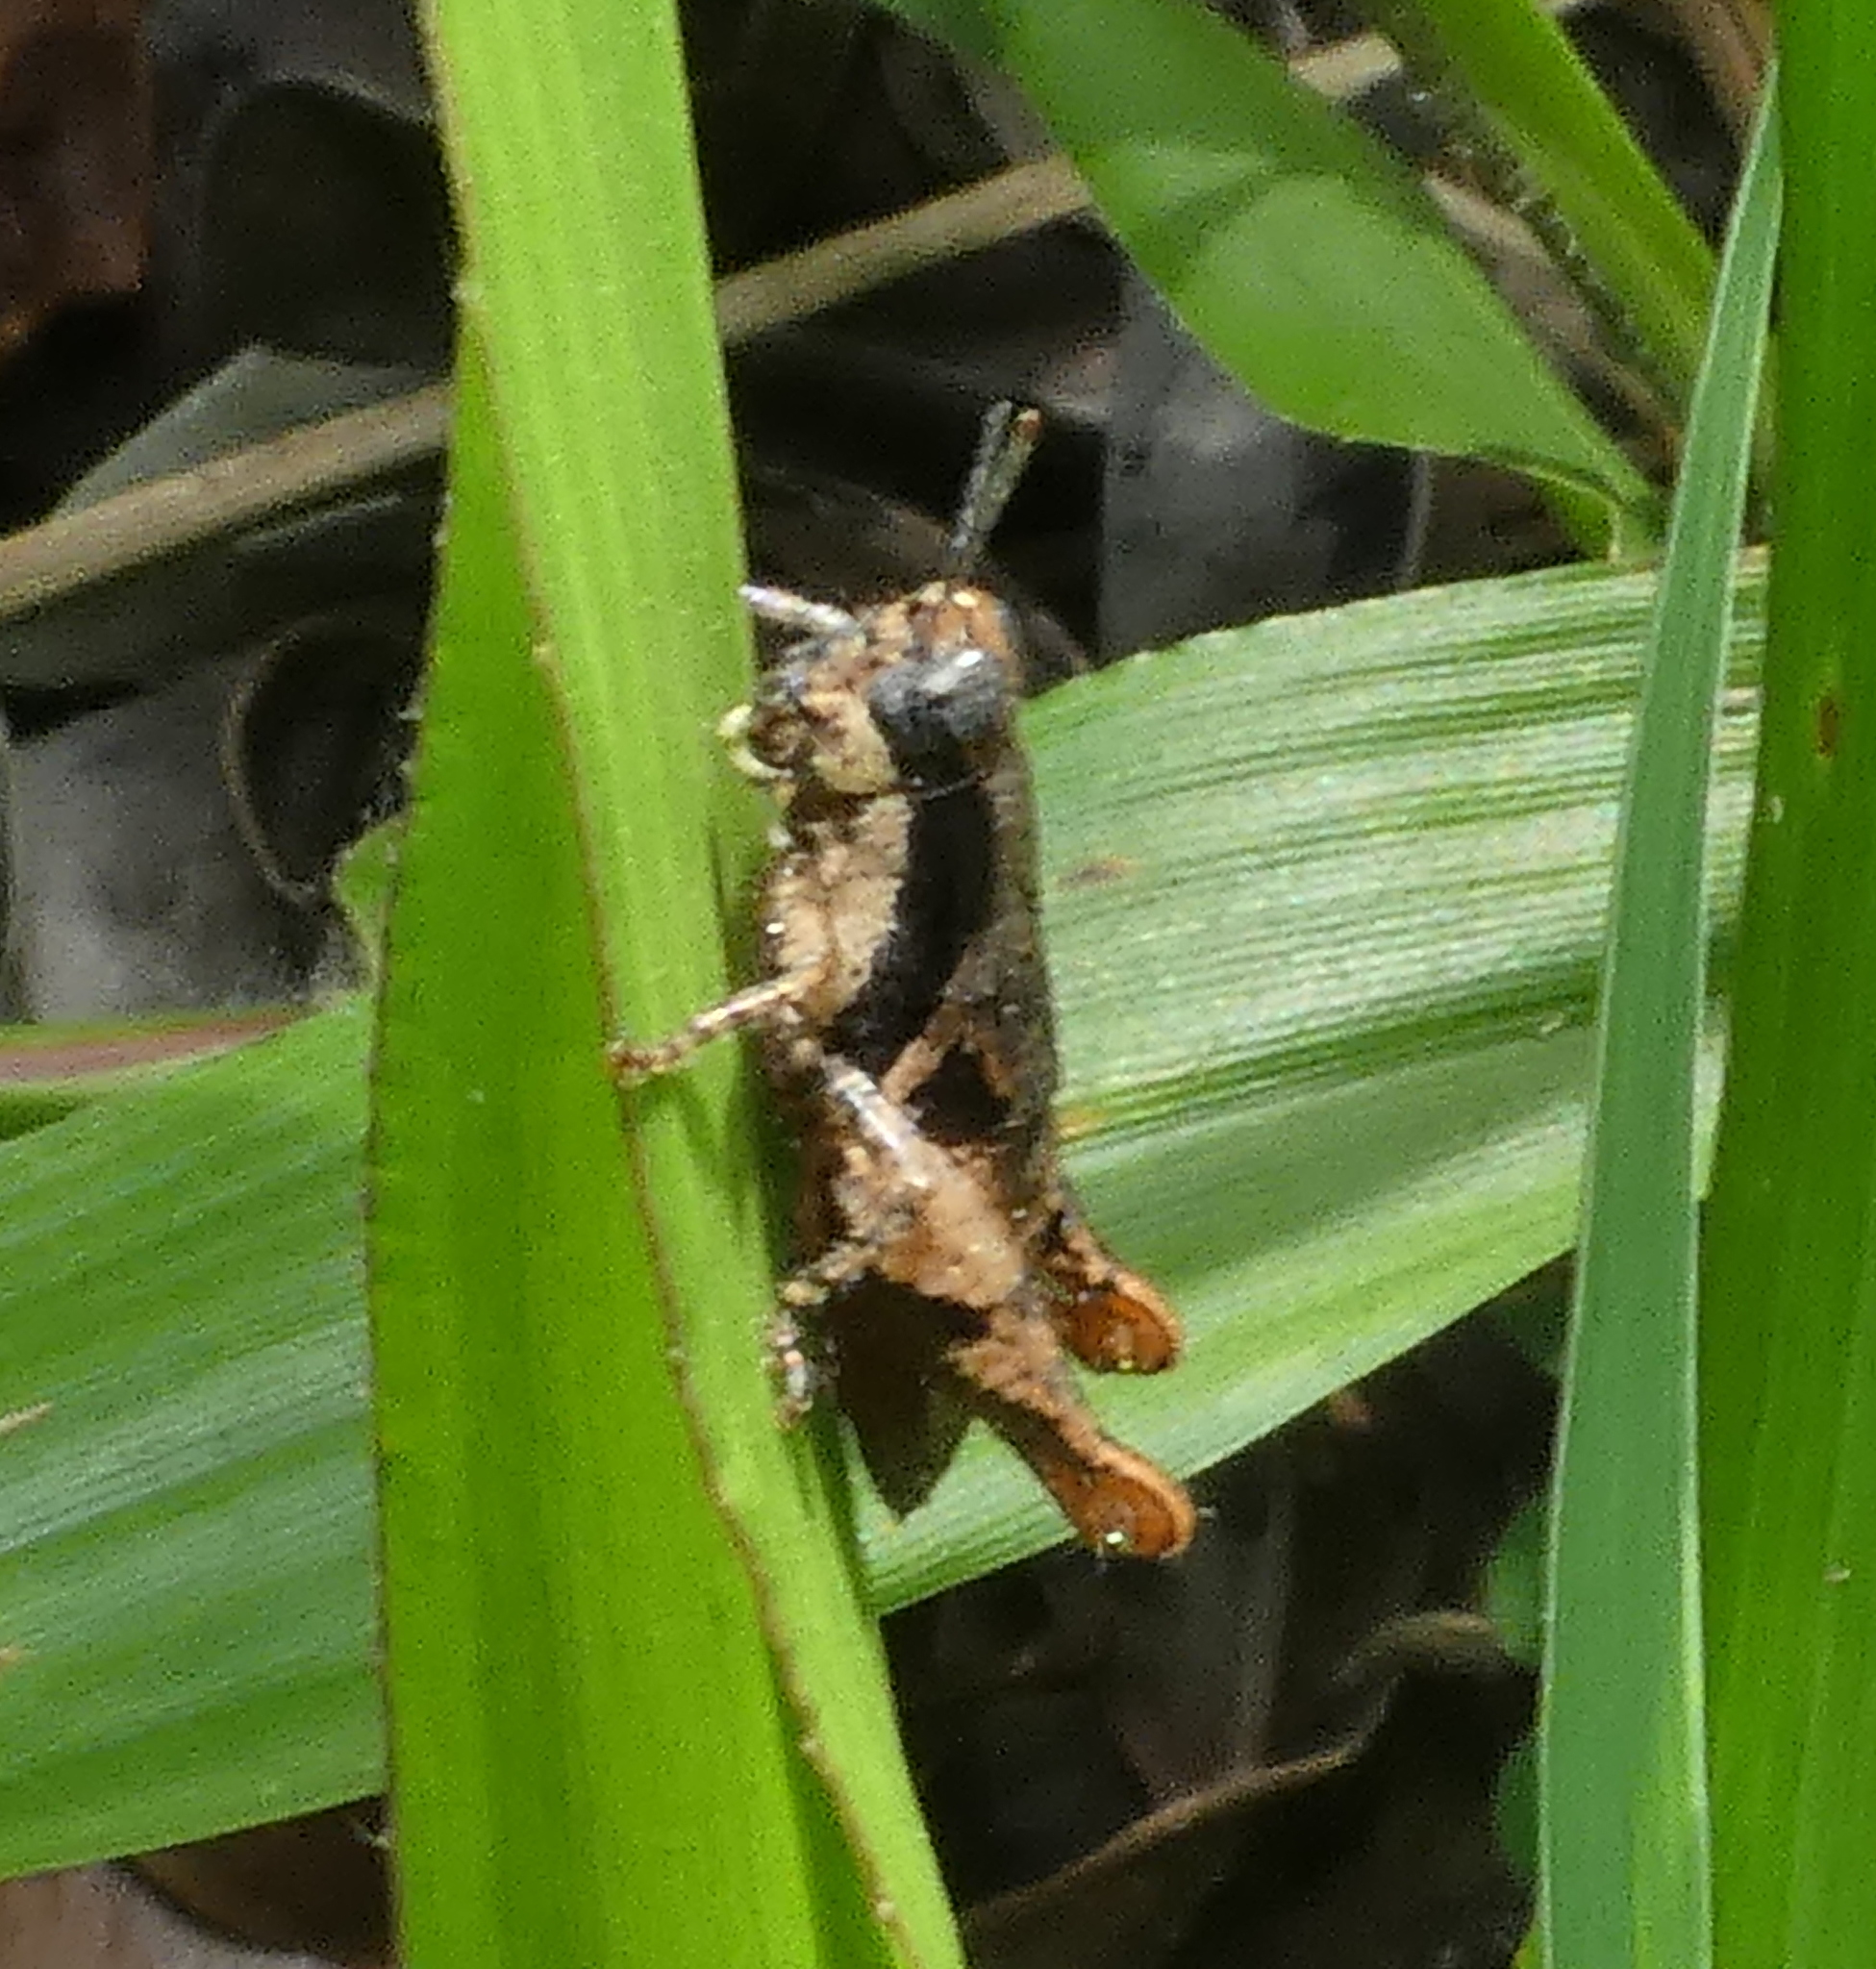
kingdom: Animalia
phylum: Arthropoda
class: Insecta
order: Orthoptera
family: Acrididae
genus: Eujivarus
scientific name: Eujivarus meridionalis
